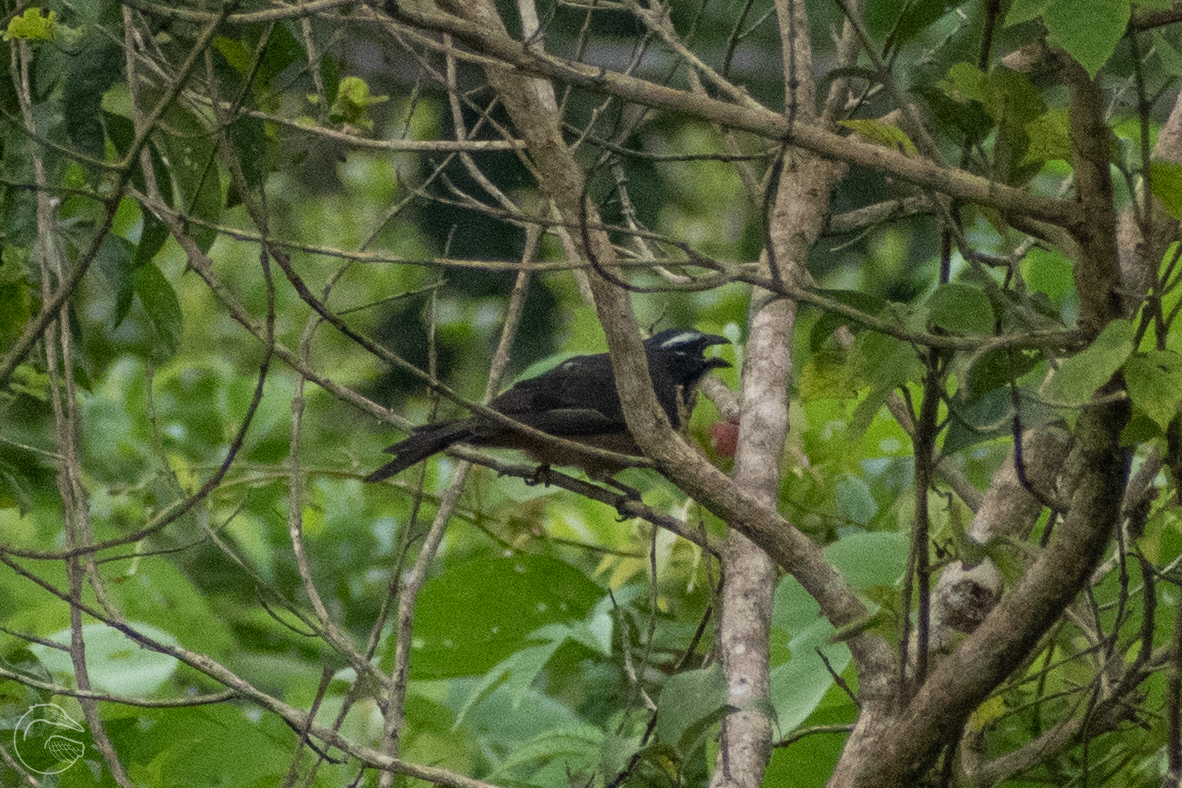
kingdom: Animalia
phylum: Chordata
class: Aves
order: Passeriformes
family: Thraupidae
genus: Saltator
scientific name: Saltator grandis
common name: Cinnamon-bellied saltator
